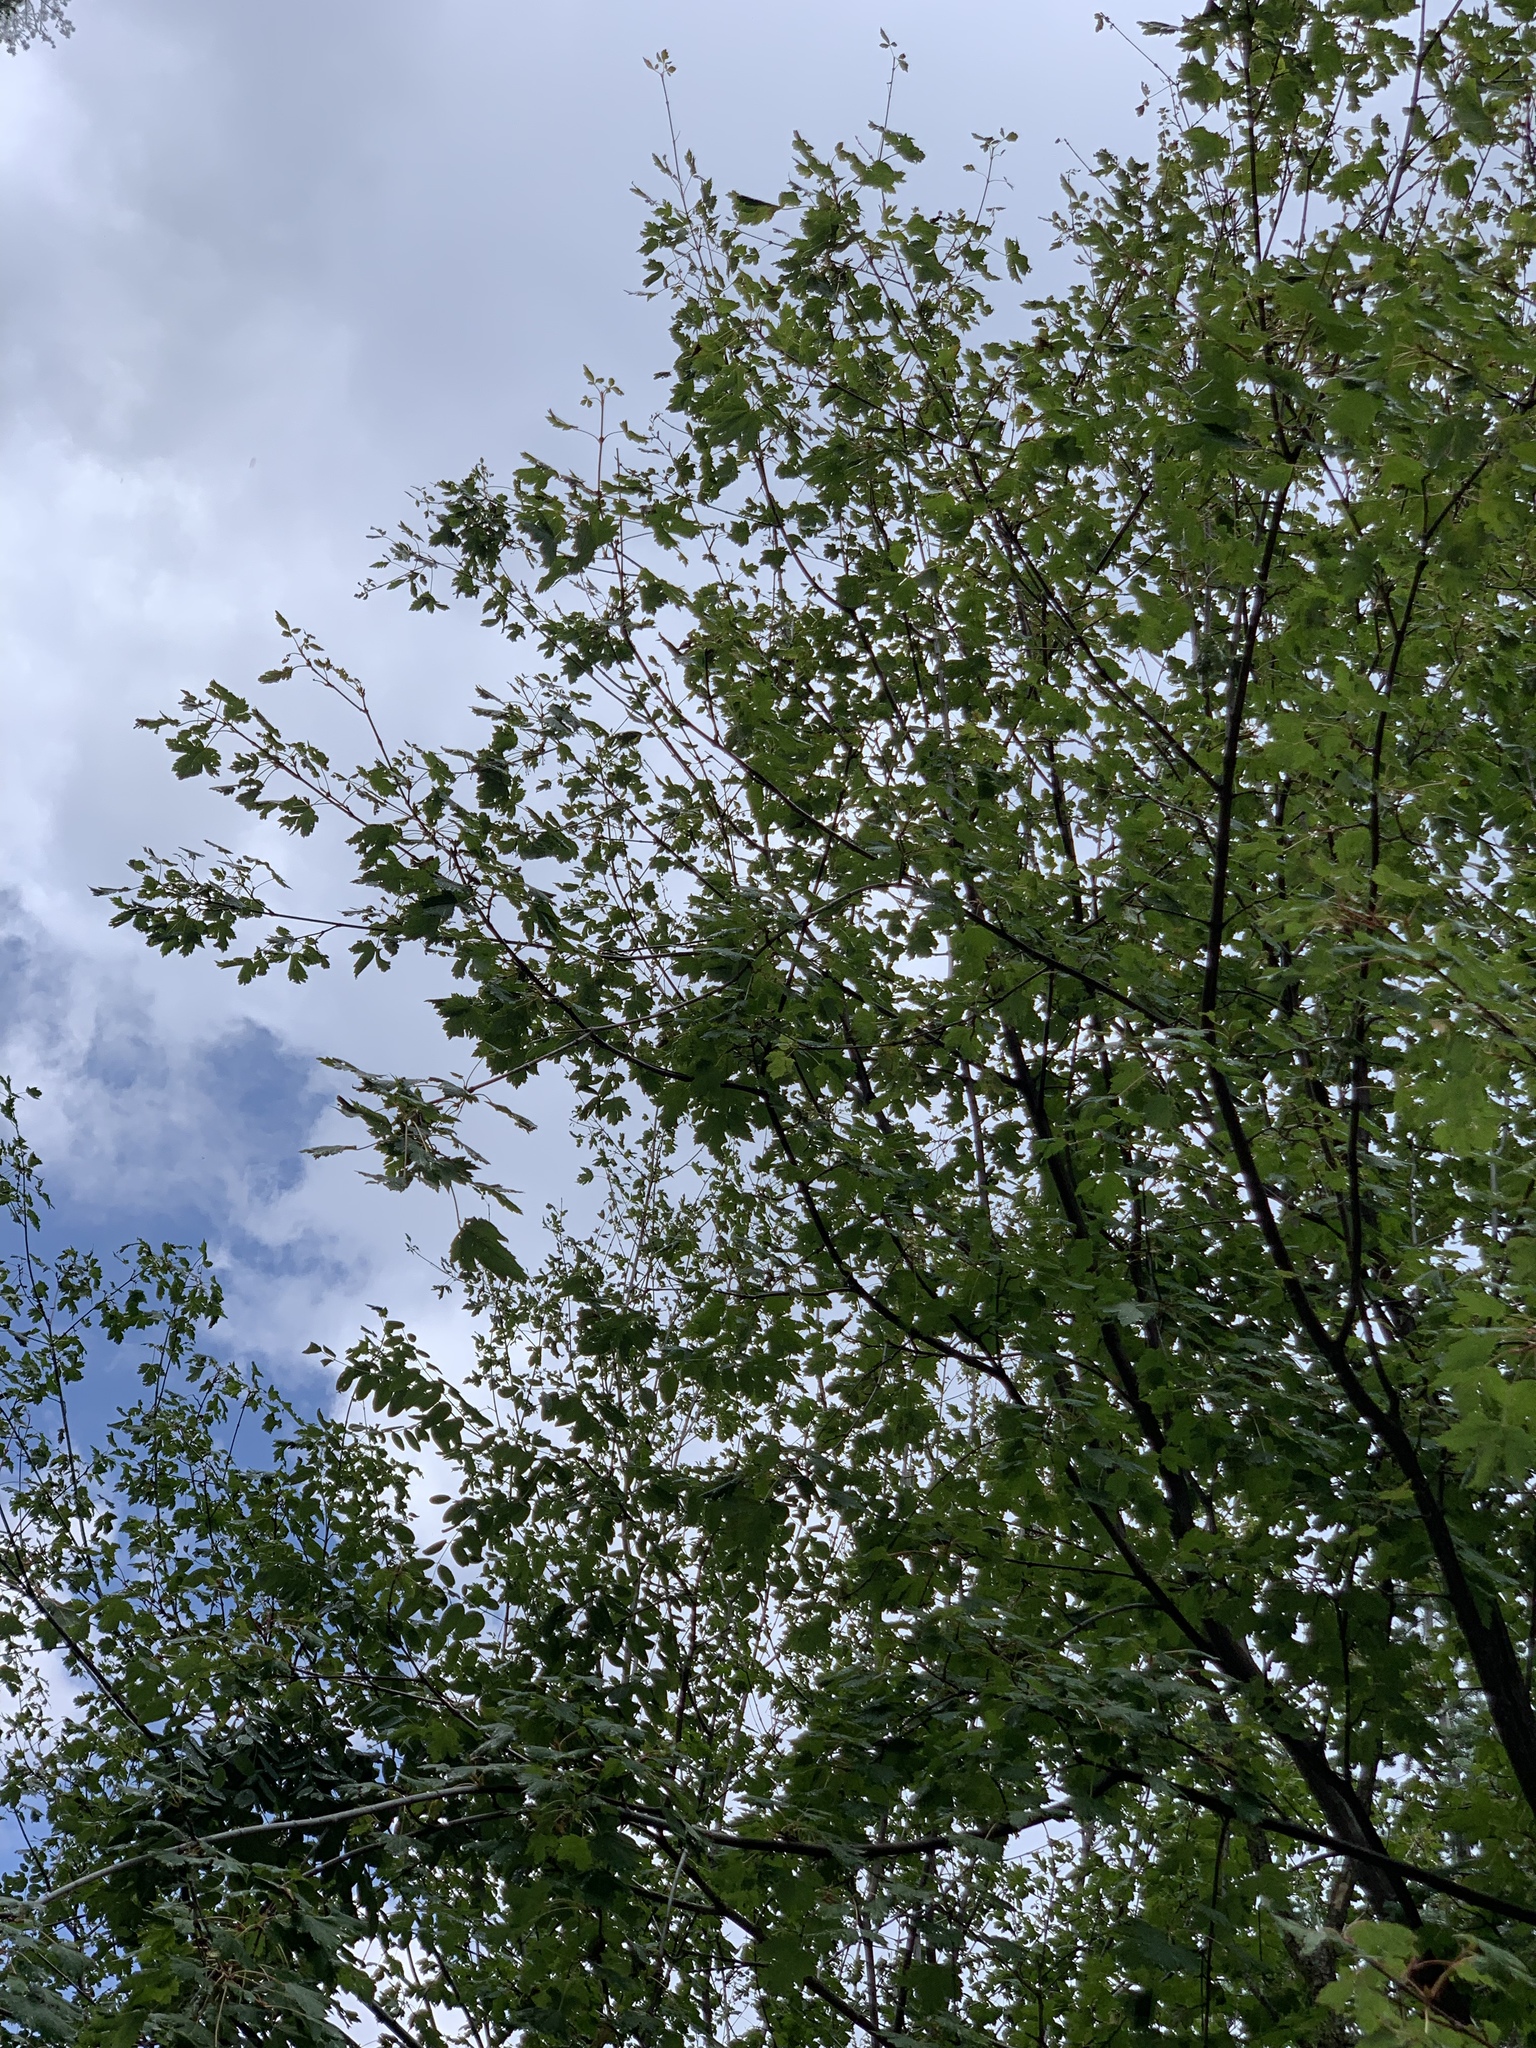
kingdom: Plantae
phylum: Tracheophyta
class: Magnoliopsida
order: Sapindales
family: Sapindaceae
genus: Acer
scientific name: Acer glabrum
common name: Rocky mountain maple
